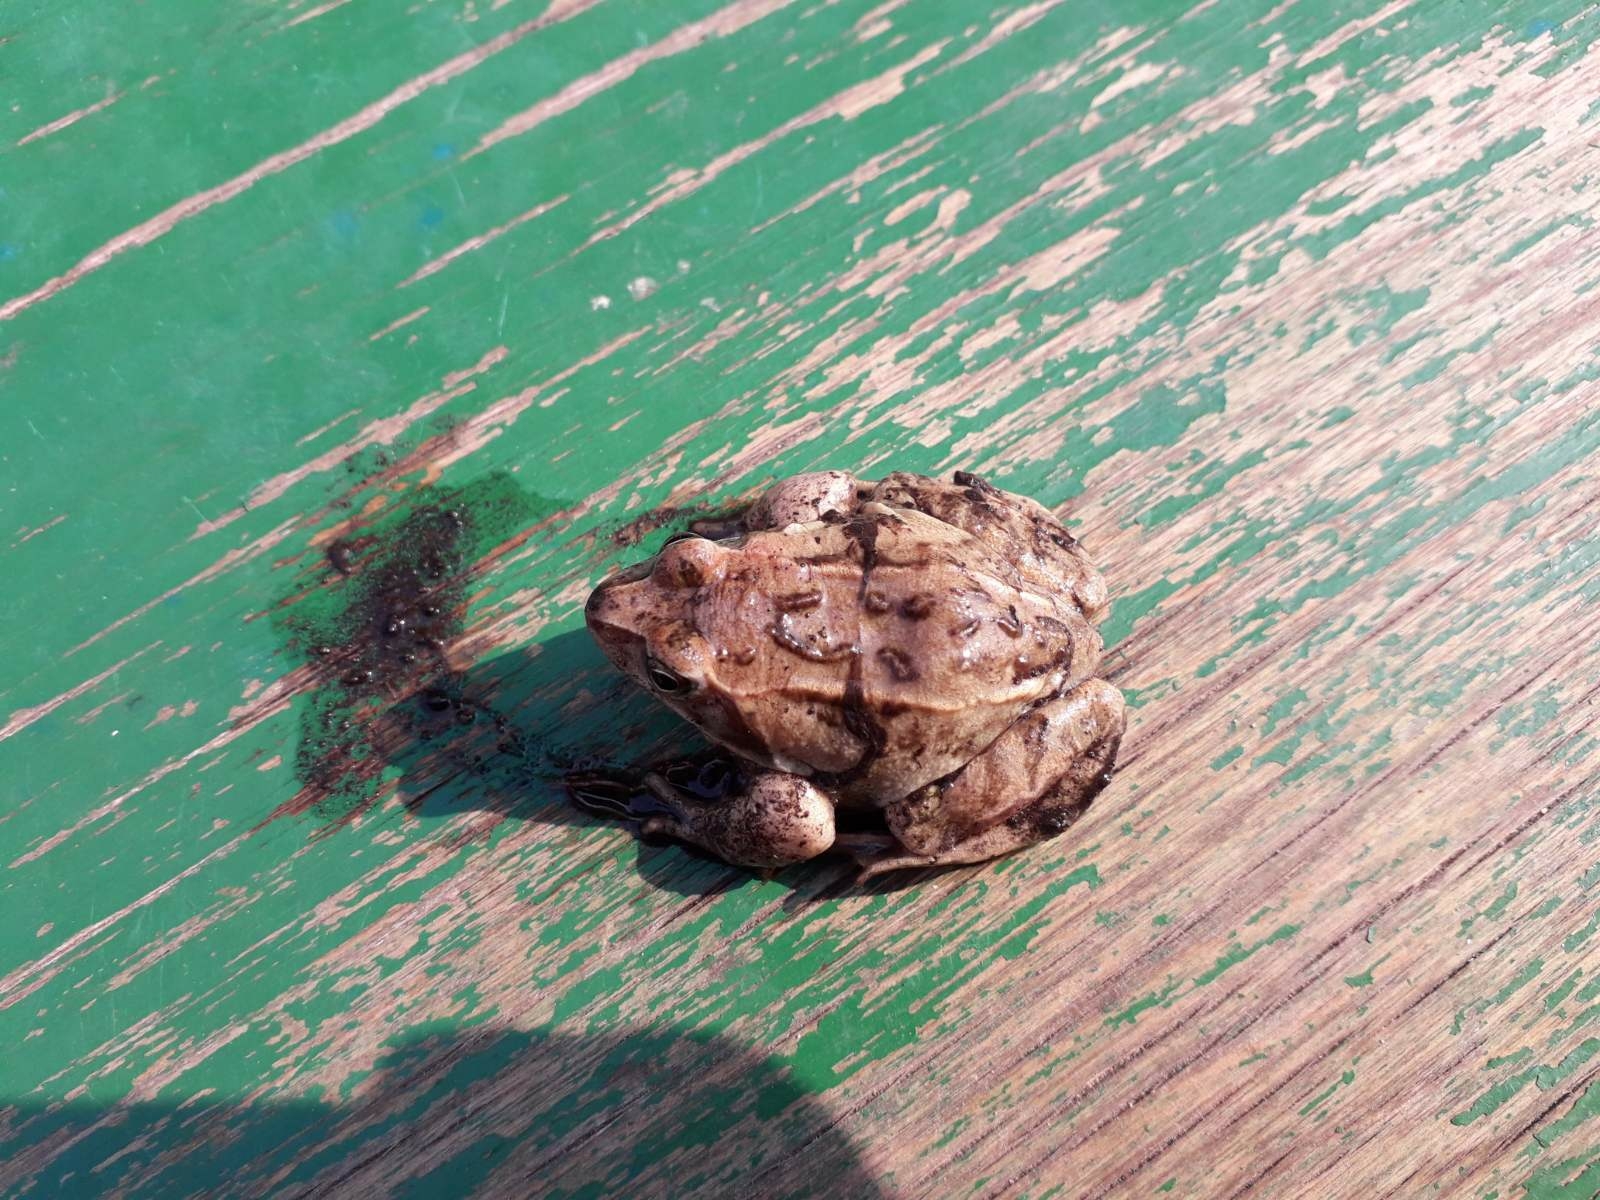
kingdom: Animalia
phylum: Chordata
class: Amphibia
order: Anura
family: Ranidae
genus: Rana
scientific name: Rana arvalis
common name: Moor frog
